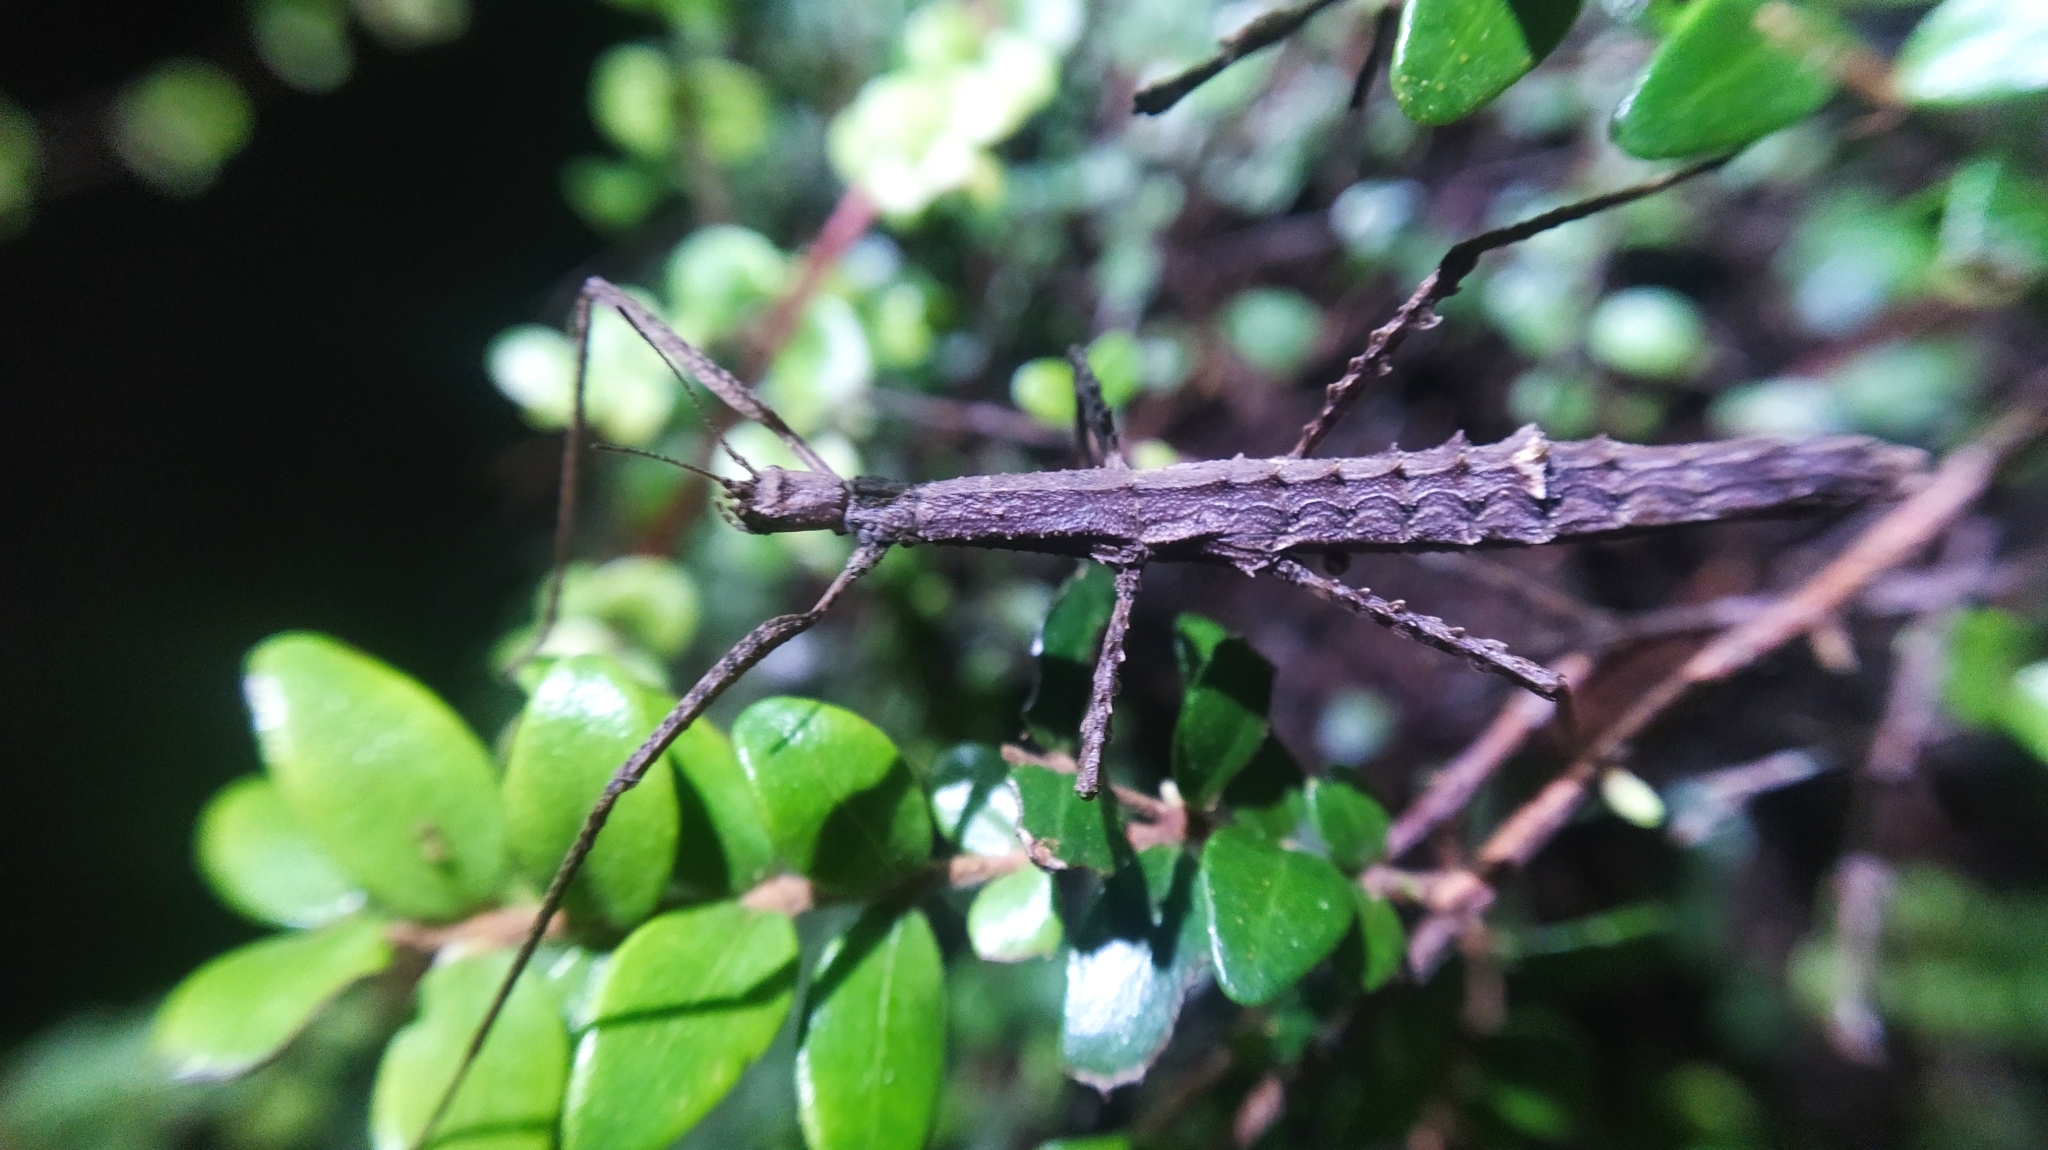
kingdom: Animalia
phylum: Arthropoda
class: Insecta
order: Phasmida
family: Phasmatidae
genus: Spinotectarchus
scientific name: Spinotectarchus acornutus
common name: The spiny ridge-backed stick insect
